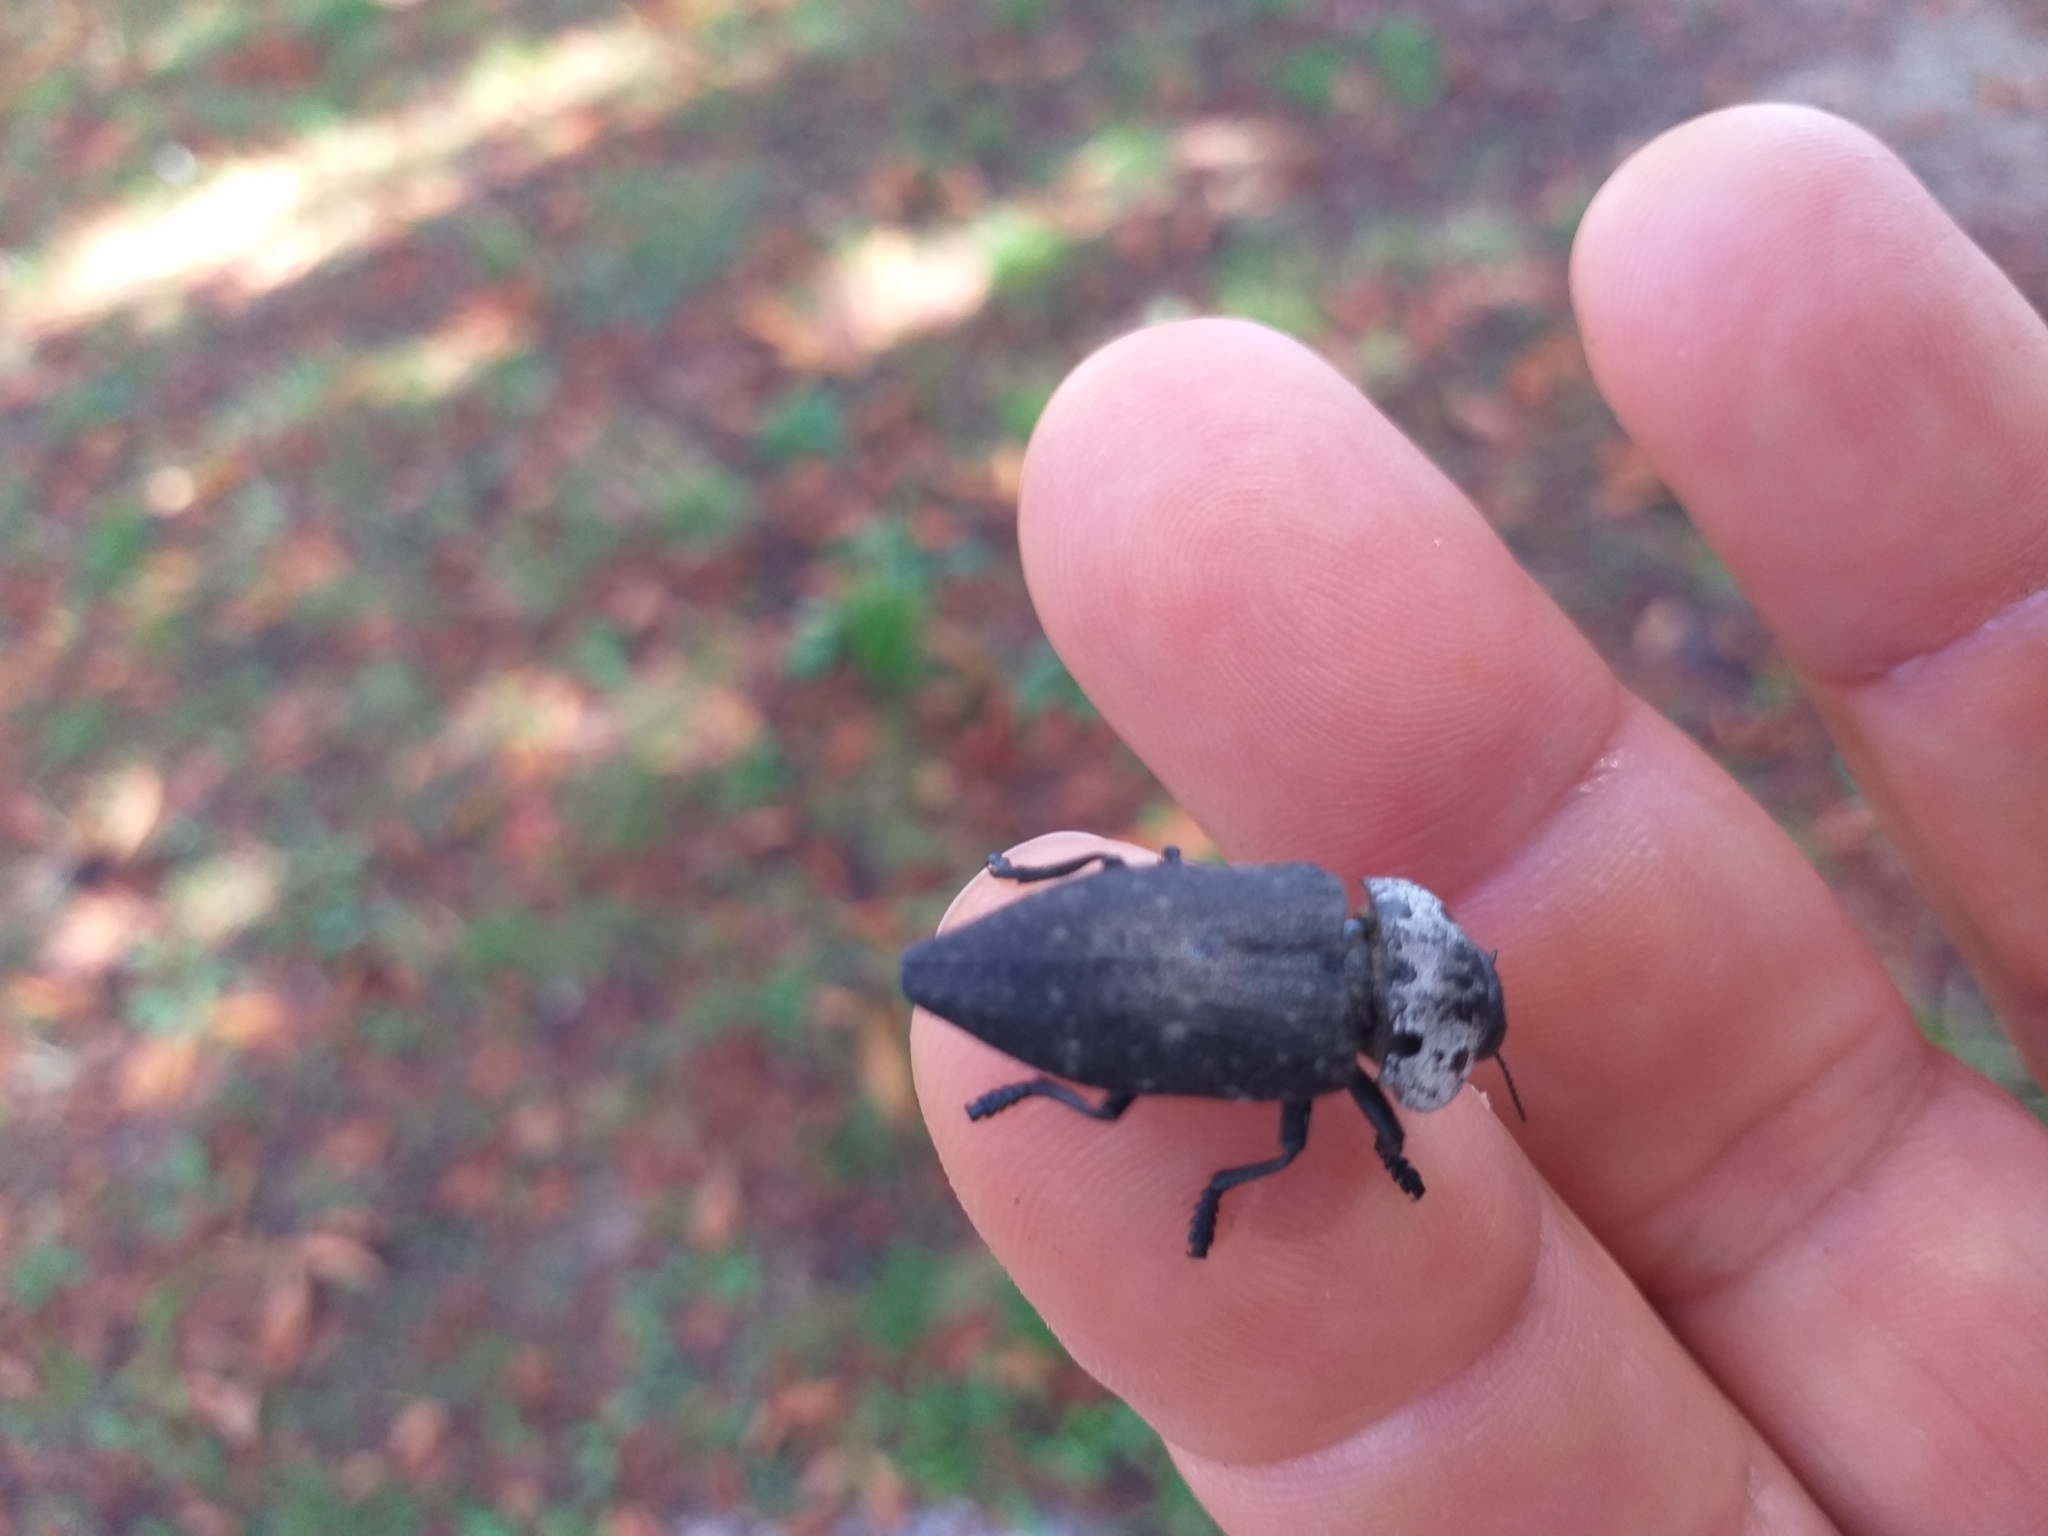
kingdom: Animalia
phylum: Arthropoda
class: Insecta
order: Coleoptera
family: Buprestidae
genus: Capnodis
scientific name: Capnodis tenebrionis
